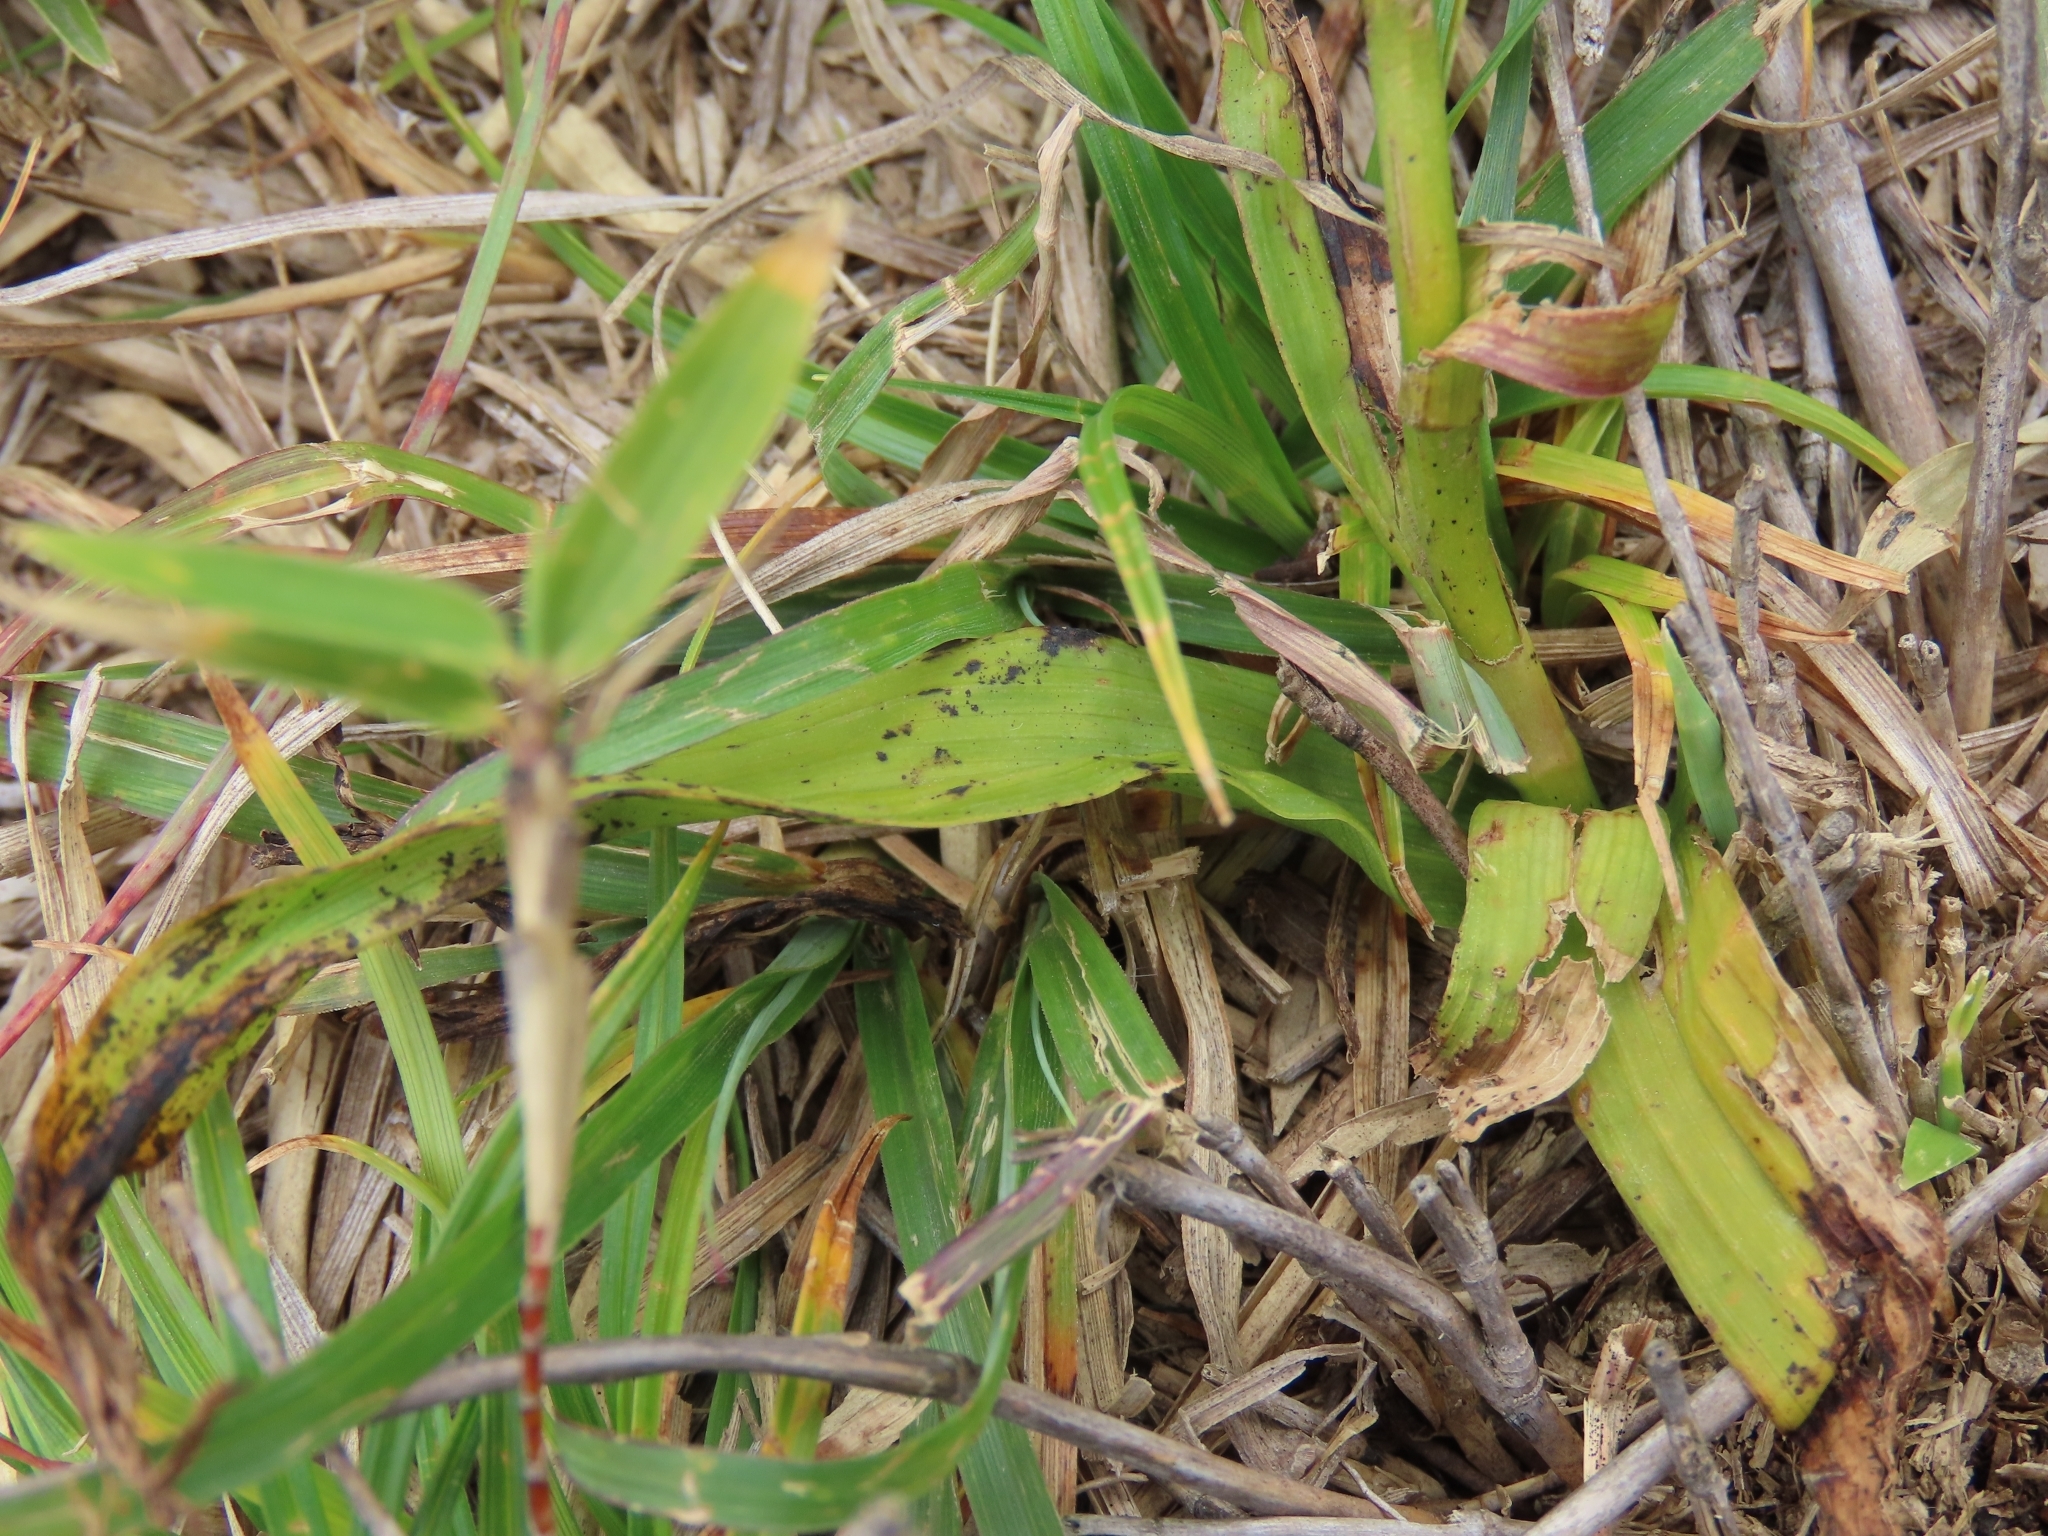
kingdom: Plantae
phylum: Tracheophyta
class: Liliopsida
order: Liliales
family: Melanthiaceae
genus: Veratrum
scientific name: Veratrum formosanum
